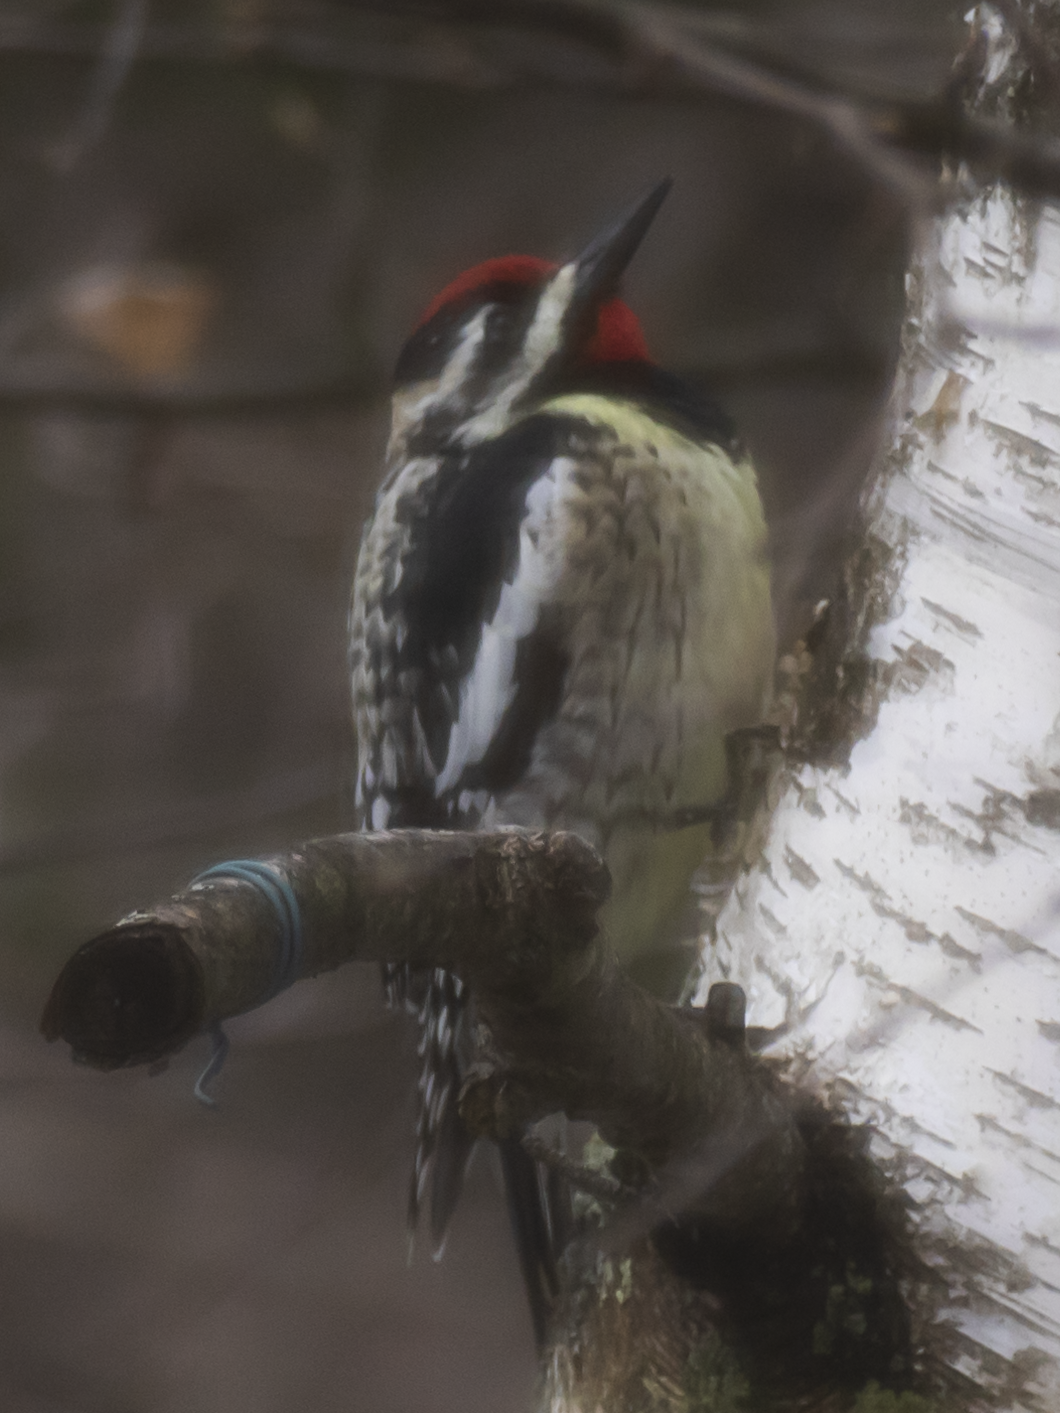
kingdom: Animalia
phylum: Chordata
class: Aves
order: Piciformes
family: Picidae
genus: Sphyrapicus
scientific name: Sphyrapicus varius
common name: Yellow-bellied sapsucker
